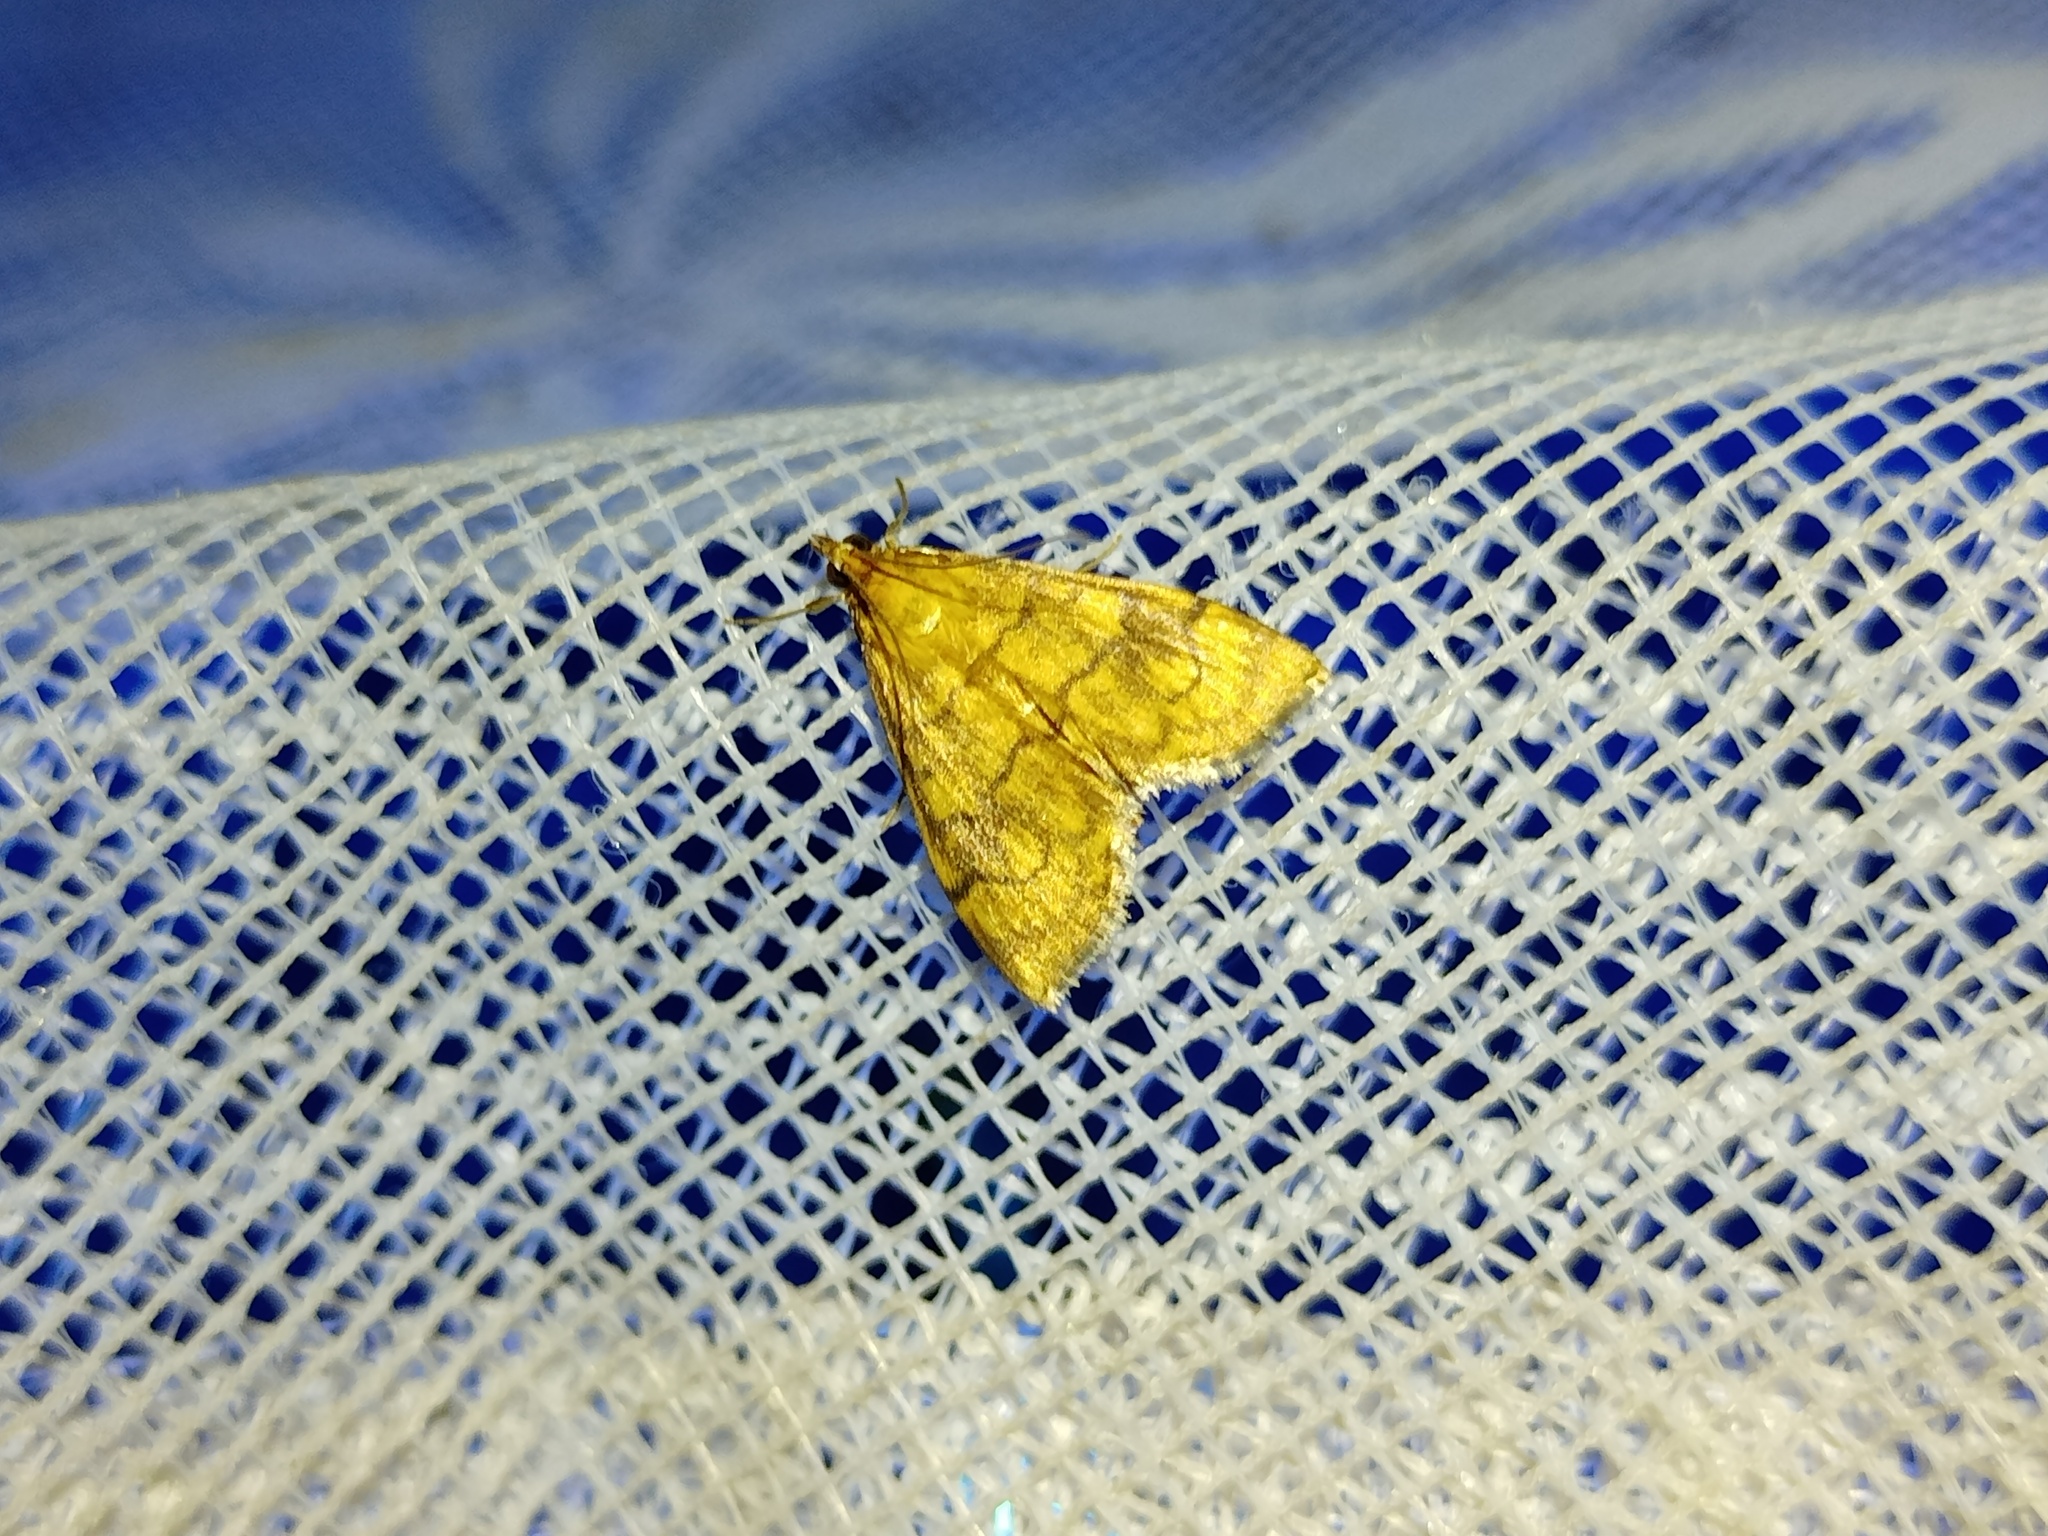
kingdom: Animalia
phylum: Arthropoda
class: Insecta
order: Lepidoptera
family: Crambidae
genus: Anania
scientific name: Anania verbascalis
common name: Golden pearl
